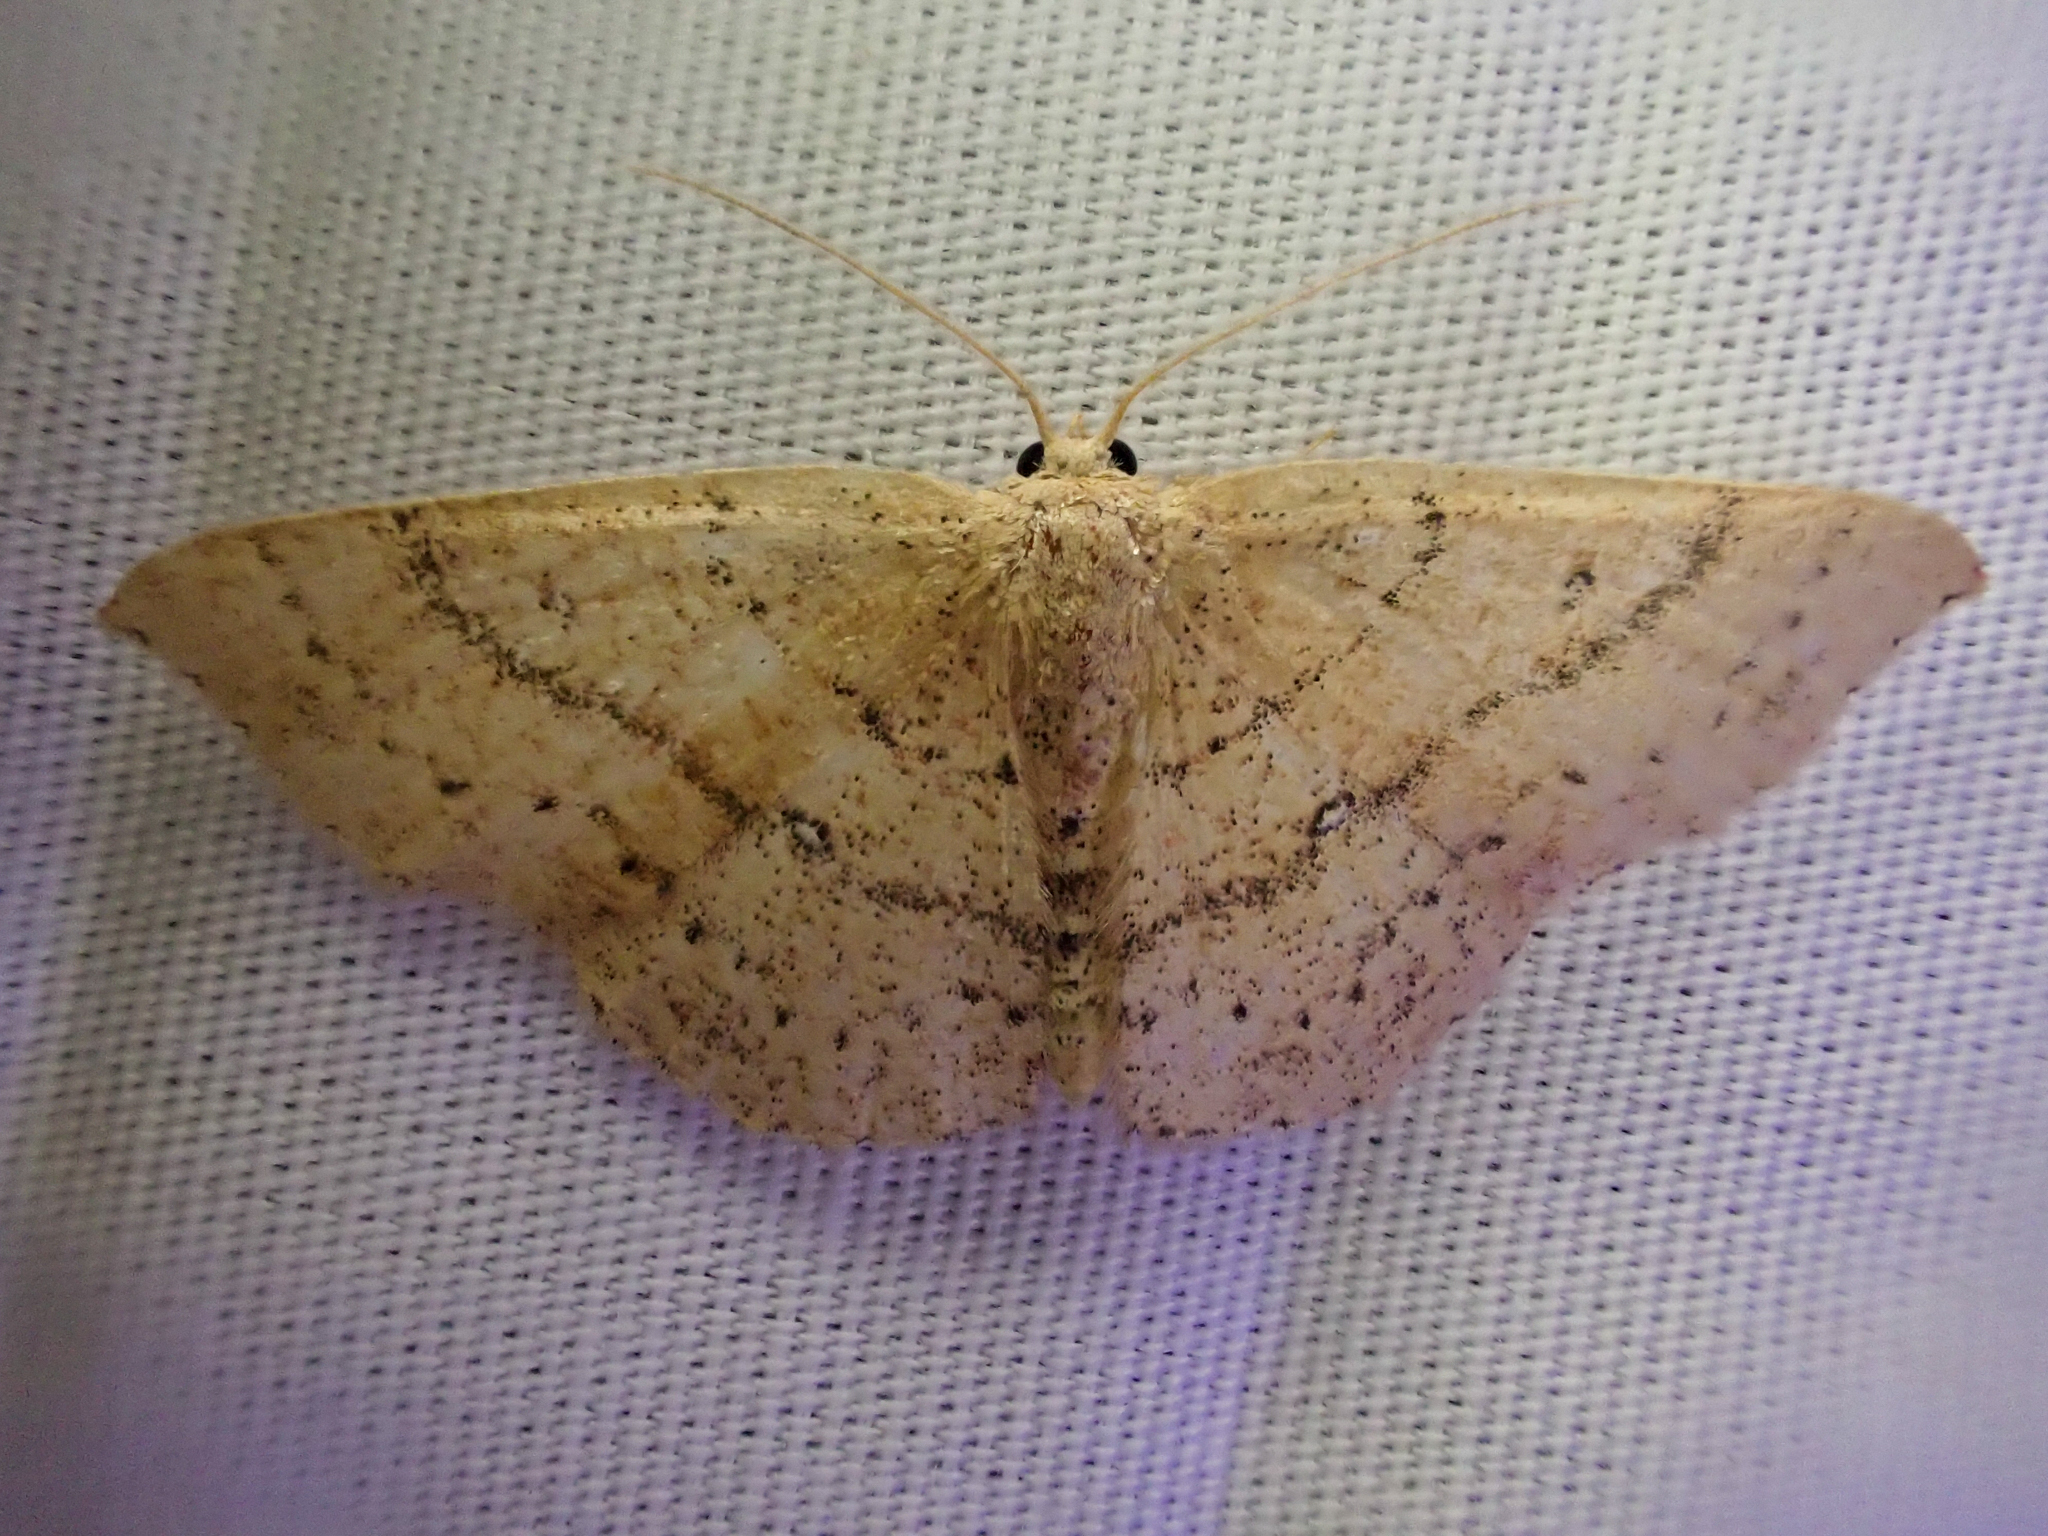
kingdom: Animalia
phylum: Arthropoda
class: Insecta
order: Lepidoptera
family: Geometridae
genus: Cyclophora
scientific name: Cyclophora dataria
